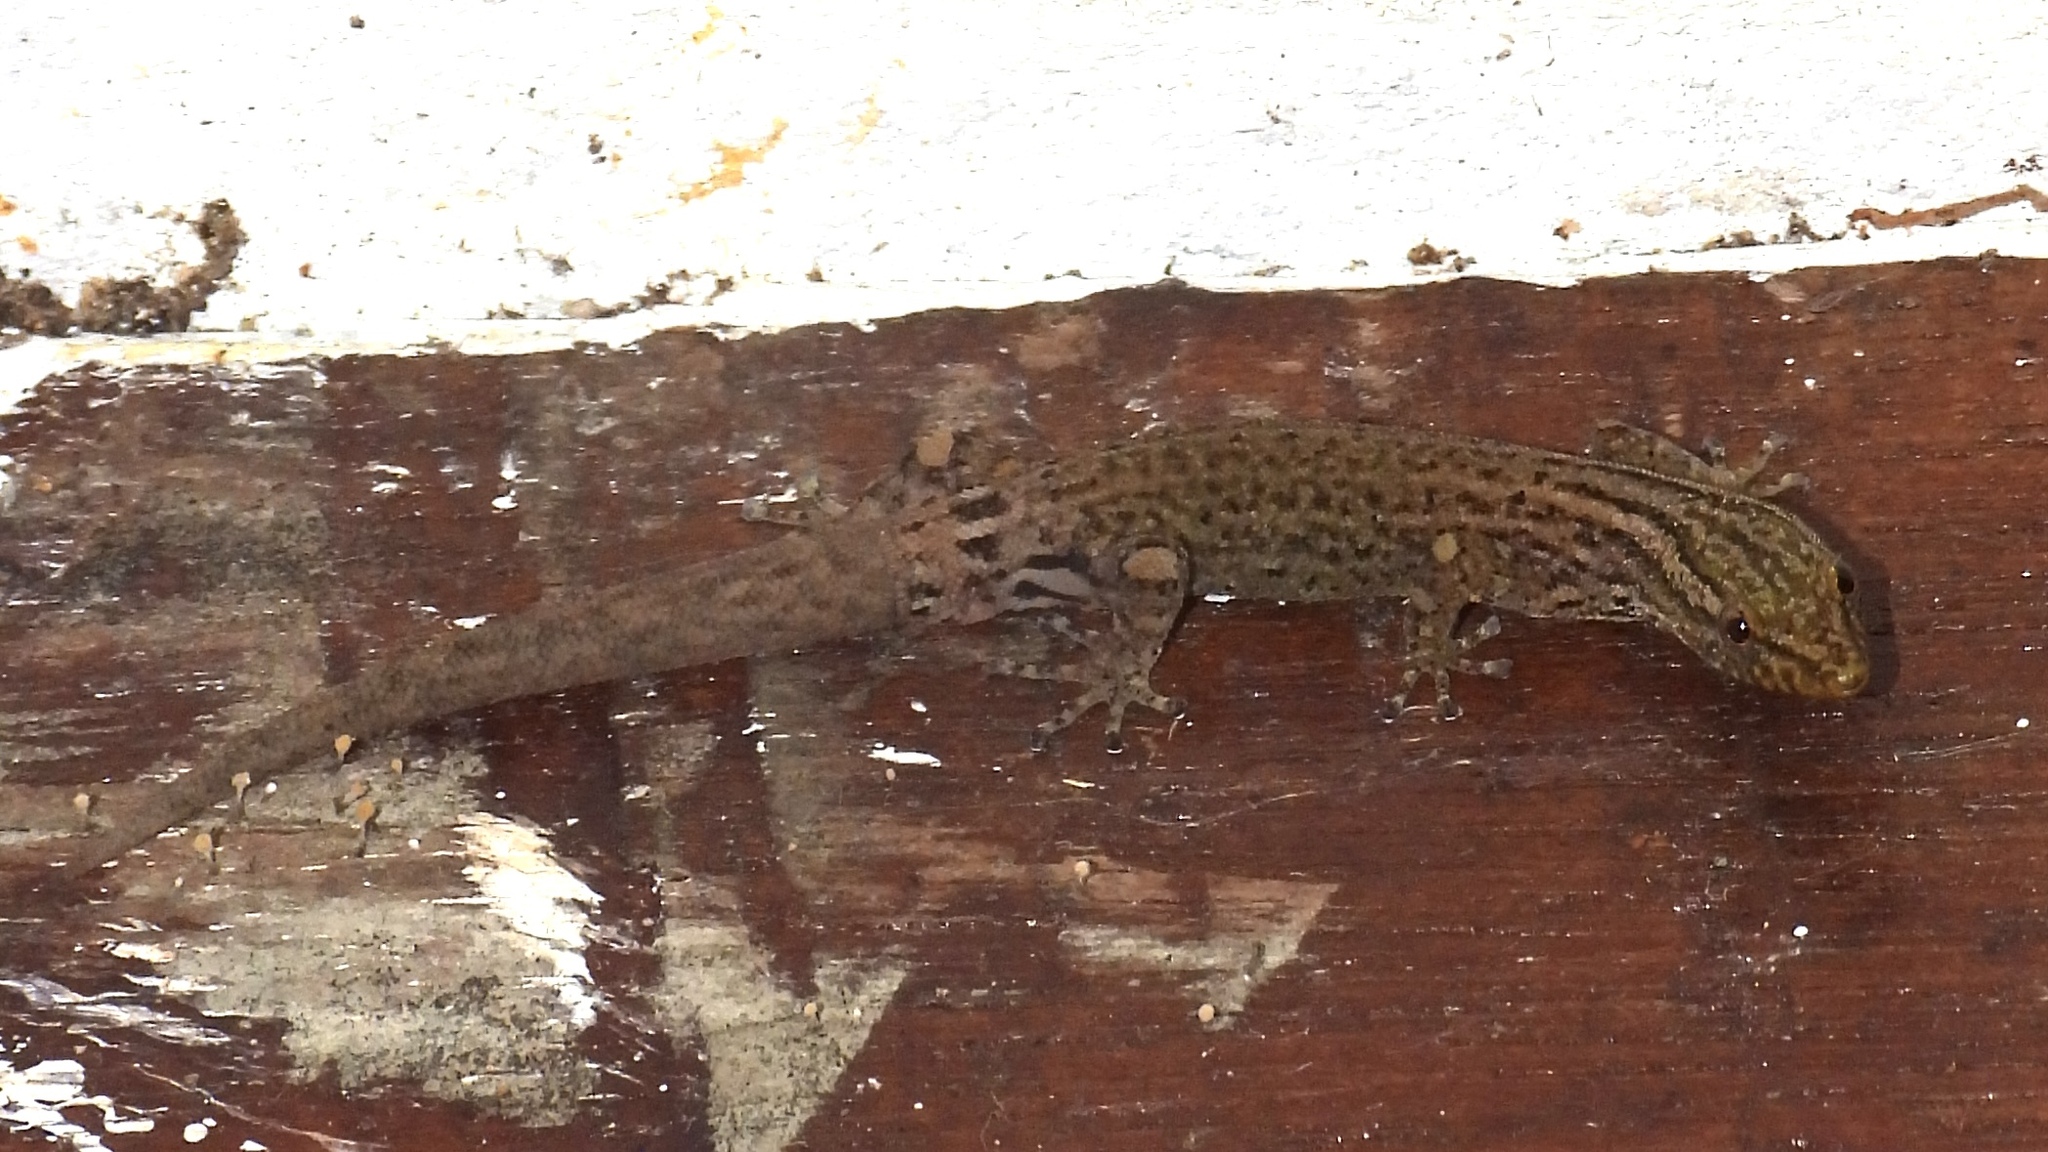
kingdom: Animalia
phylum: Chordata
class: Squamata
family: Sphaerodactylidae
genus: Sphaerodactylus
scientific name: Sphaerodactylus graptolaemus
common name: Costa rica least gecko
